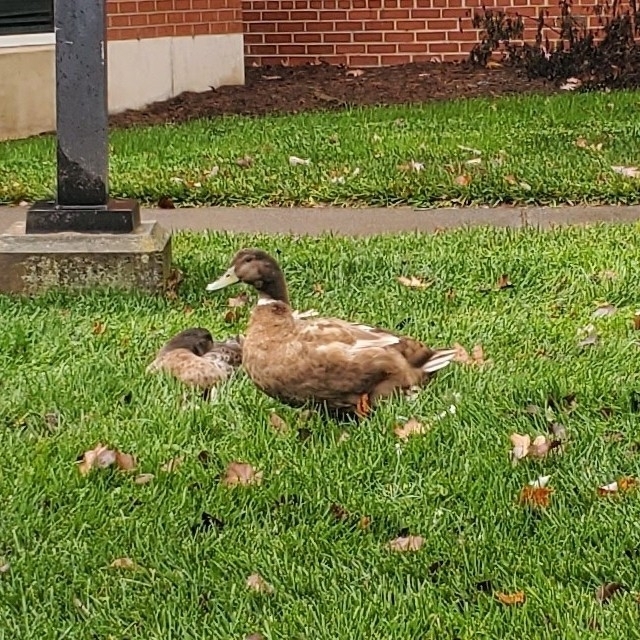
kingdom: Animalia
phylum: Chordata
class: Aves
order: Anseriformes
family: Anatidae
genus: Anas
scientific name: Anas platyrhynchos
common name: Mallard
